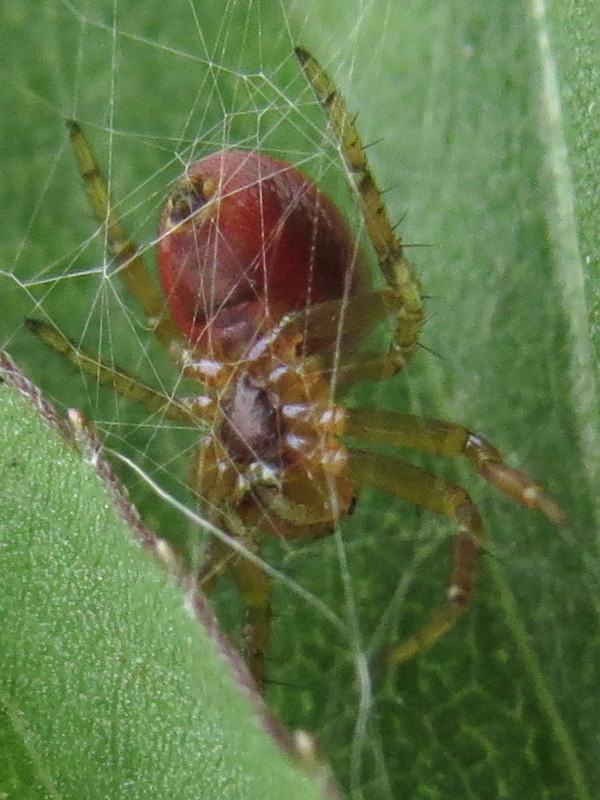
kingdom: Animalia
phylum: Arthropoda
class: Arachnida
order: Araneae
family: Araneidae
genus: Araniella
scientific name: Araniella displicata
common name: Sixspotted orb weaver
